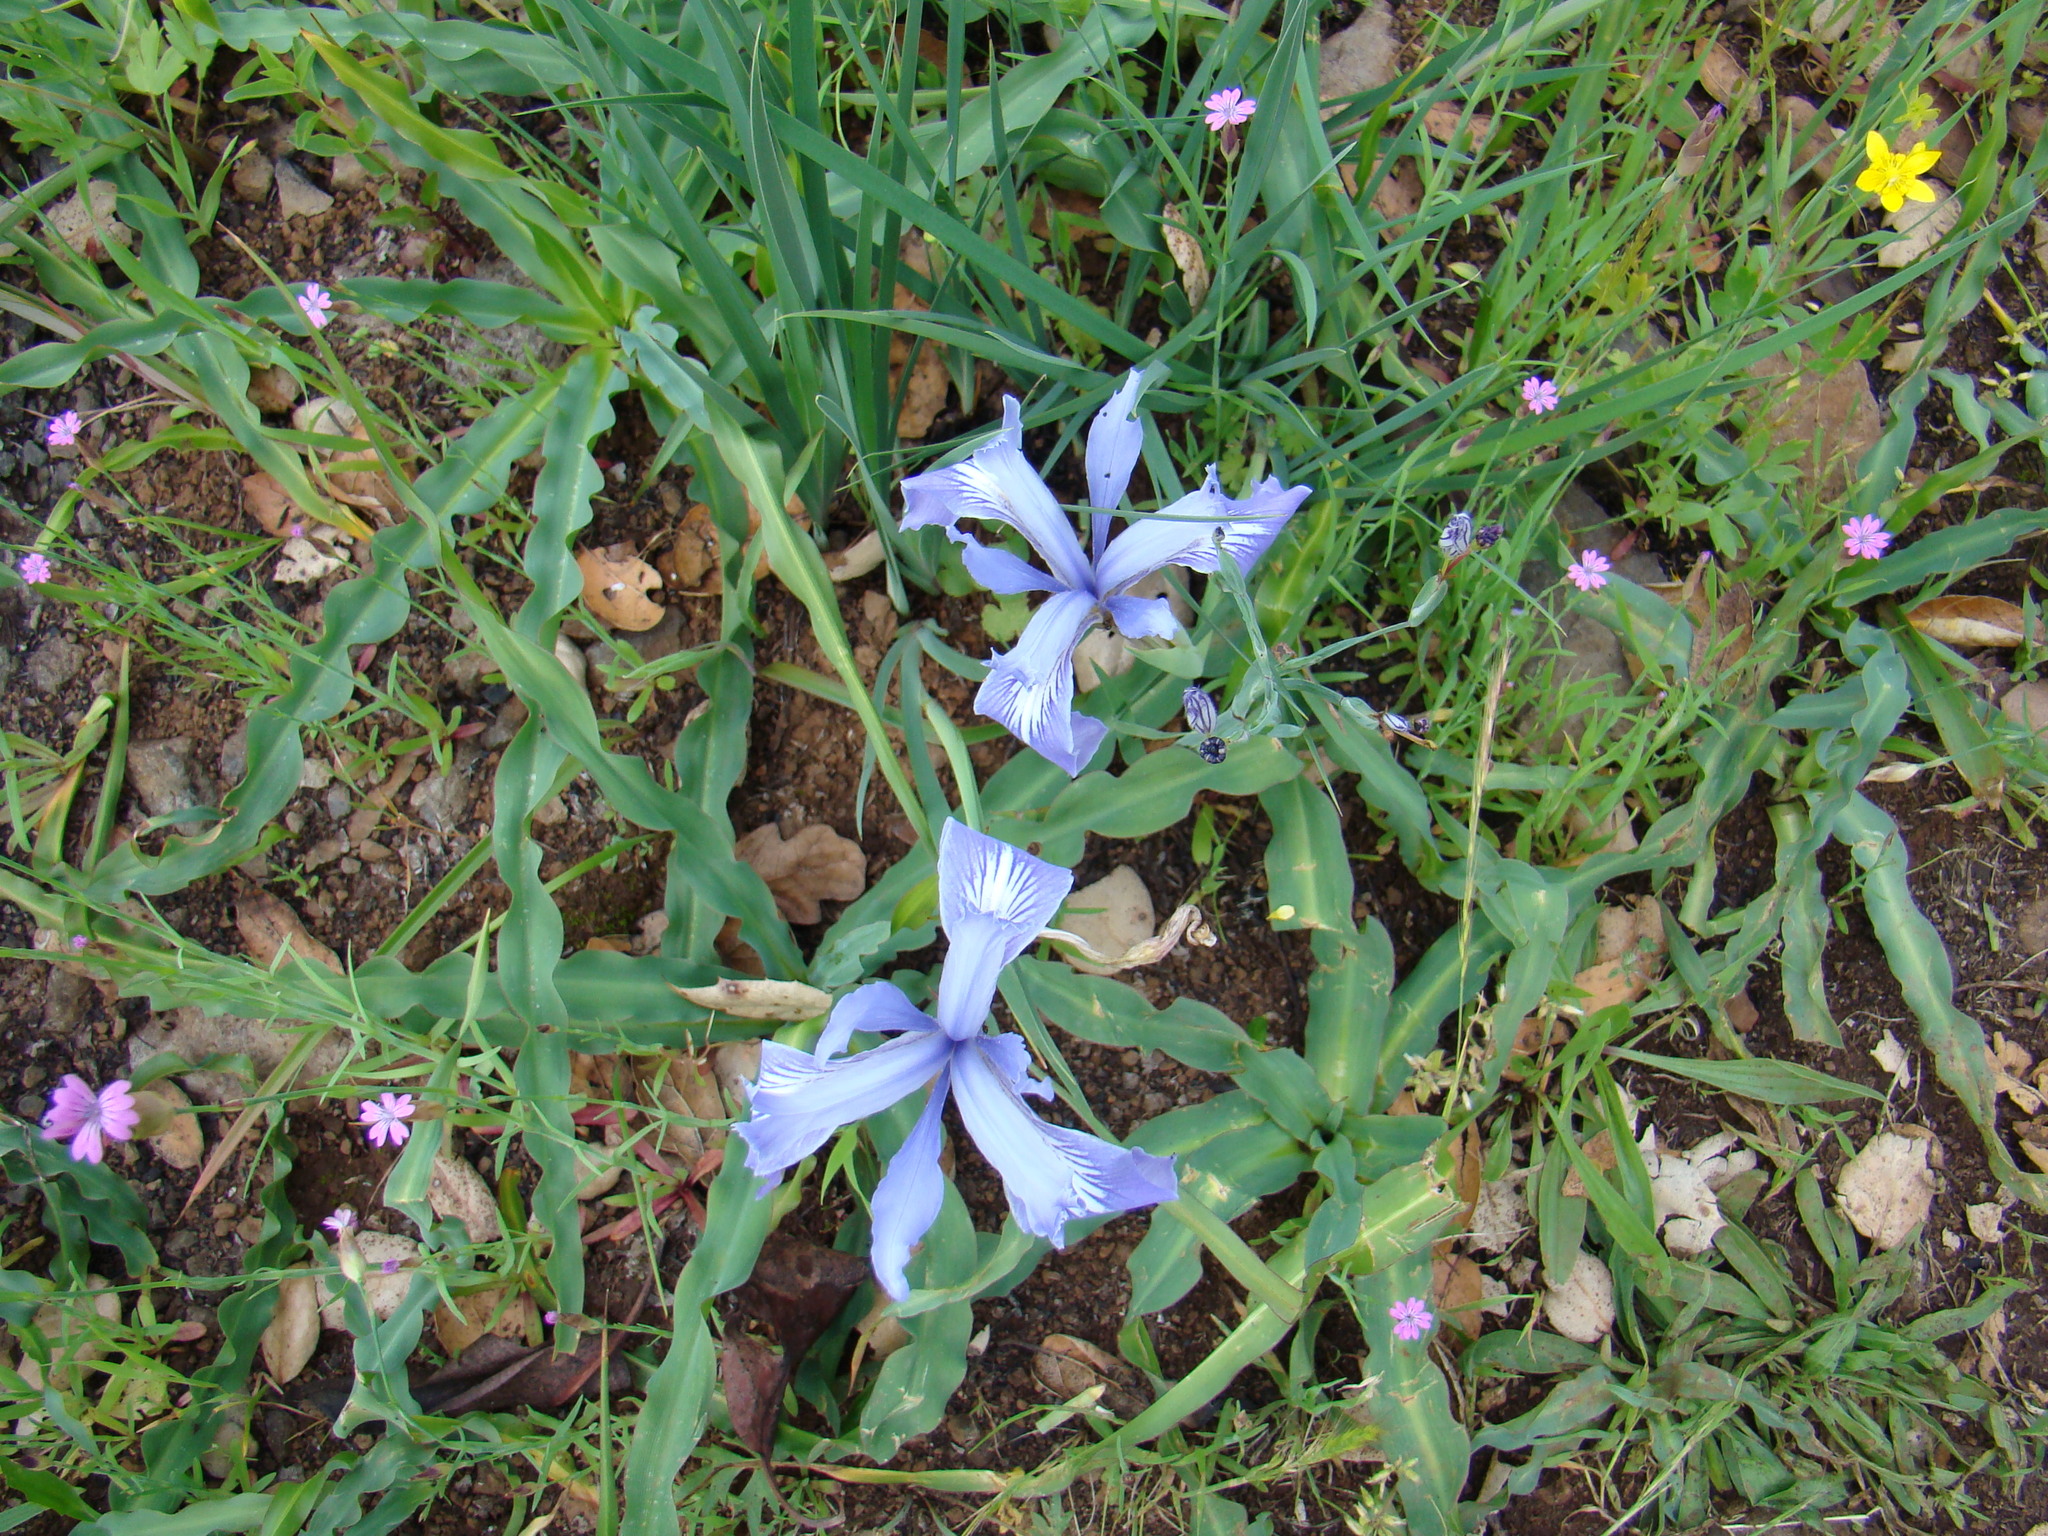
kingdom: Plantae
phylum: Tracheophyta
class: Liliopsida
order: Asparagales
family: Iridaceae
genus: Iris
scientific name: Iris macrosiphon
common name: Ground iris
